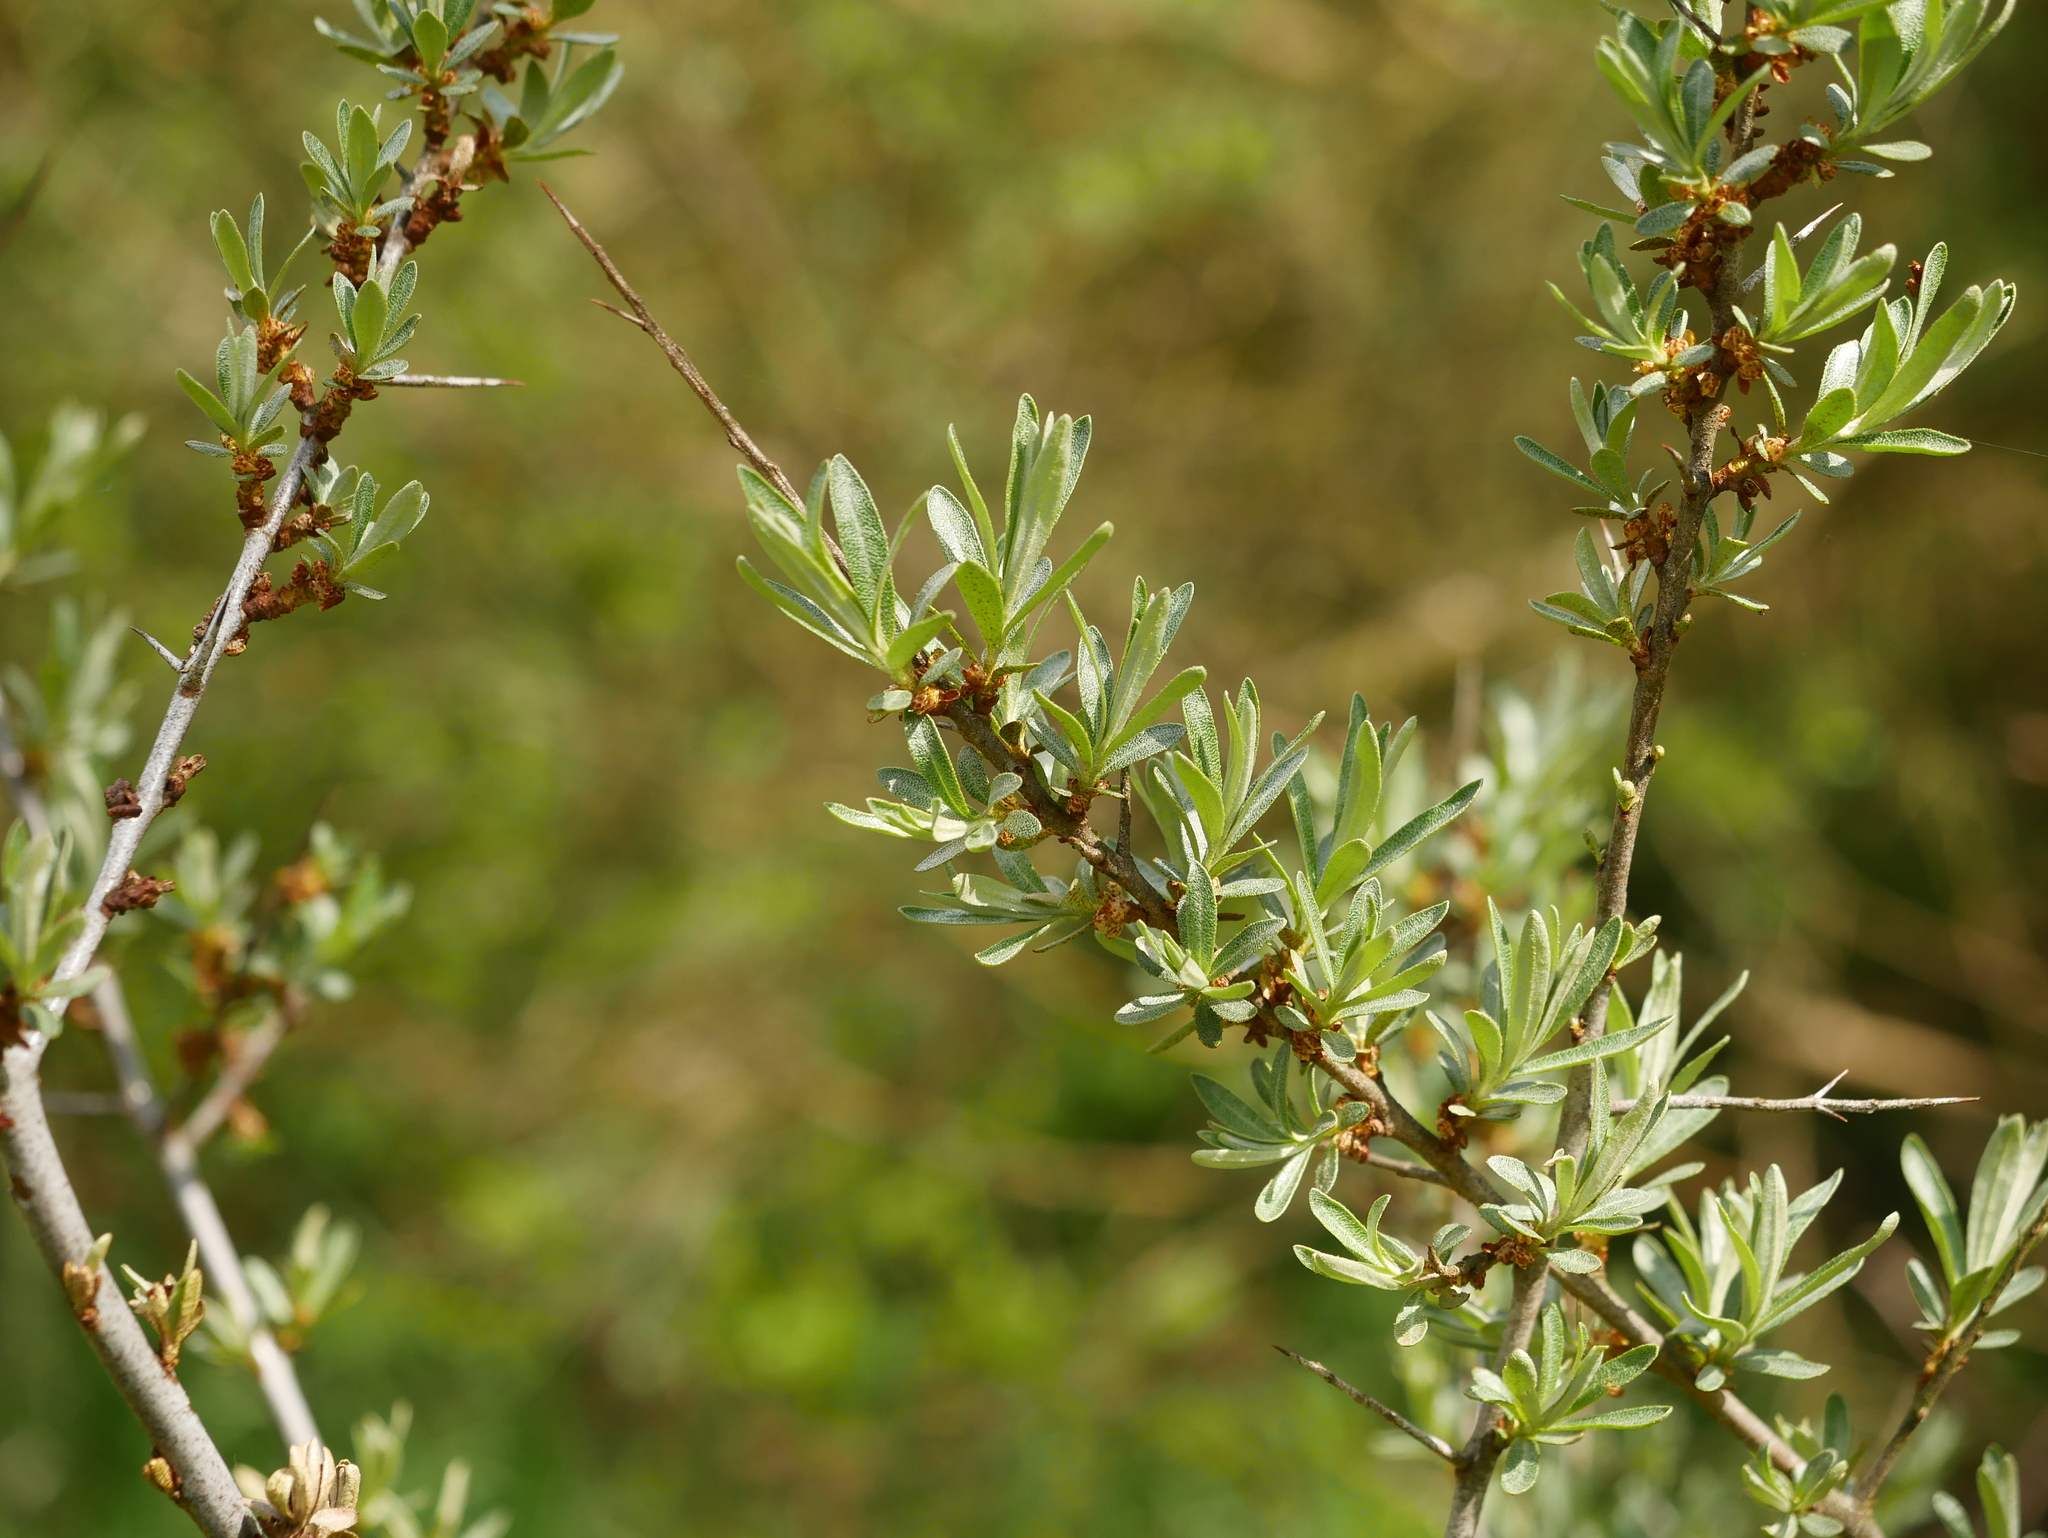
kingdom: Plantae
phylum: Tracheophyta
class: Magnoliopsida
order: Rosales
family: Elaeagnaceae
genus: Hippophae
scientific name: Hippophae rhamnoides
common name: Sea-buckthorn
